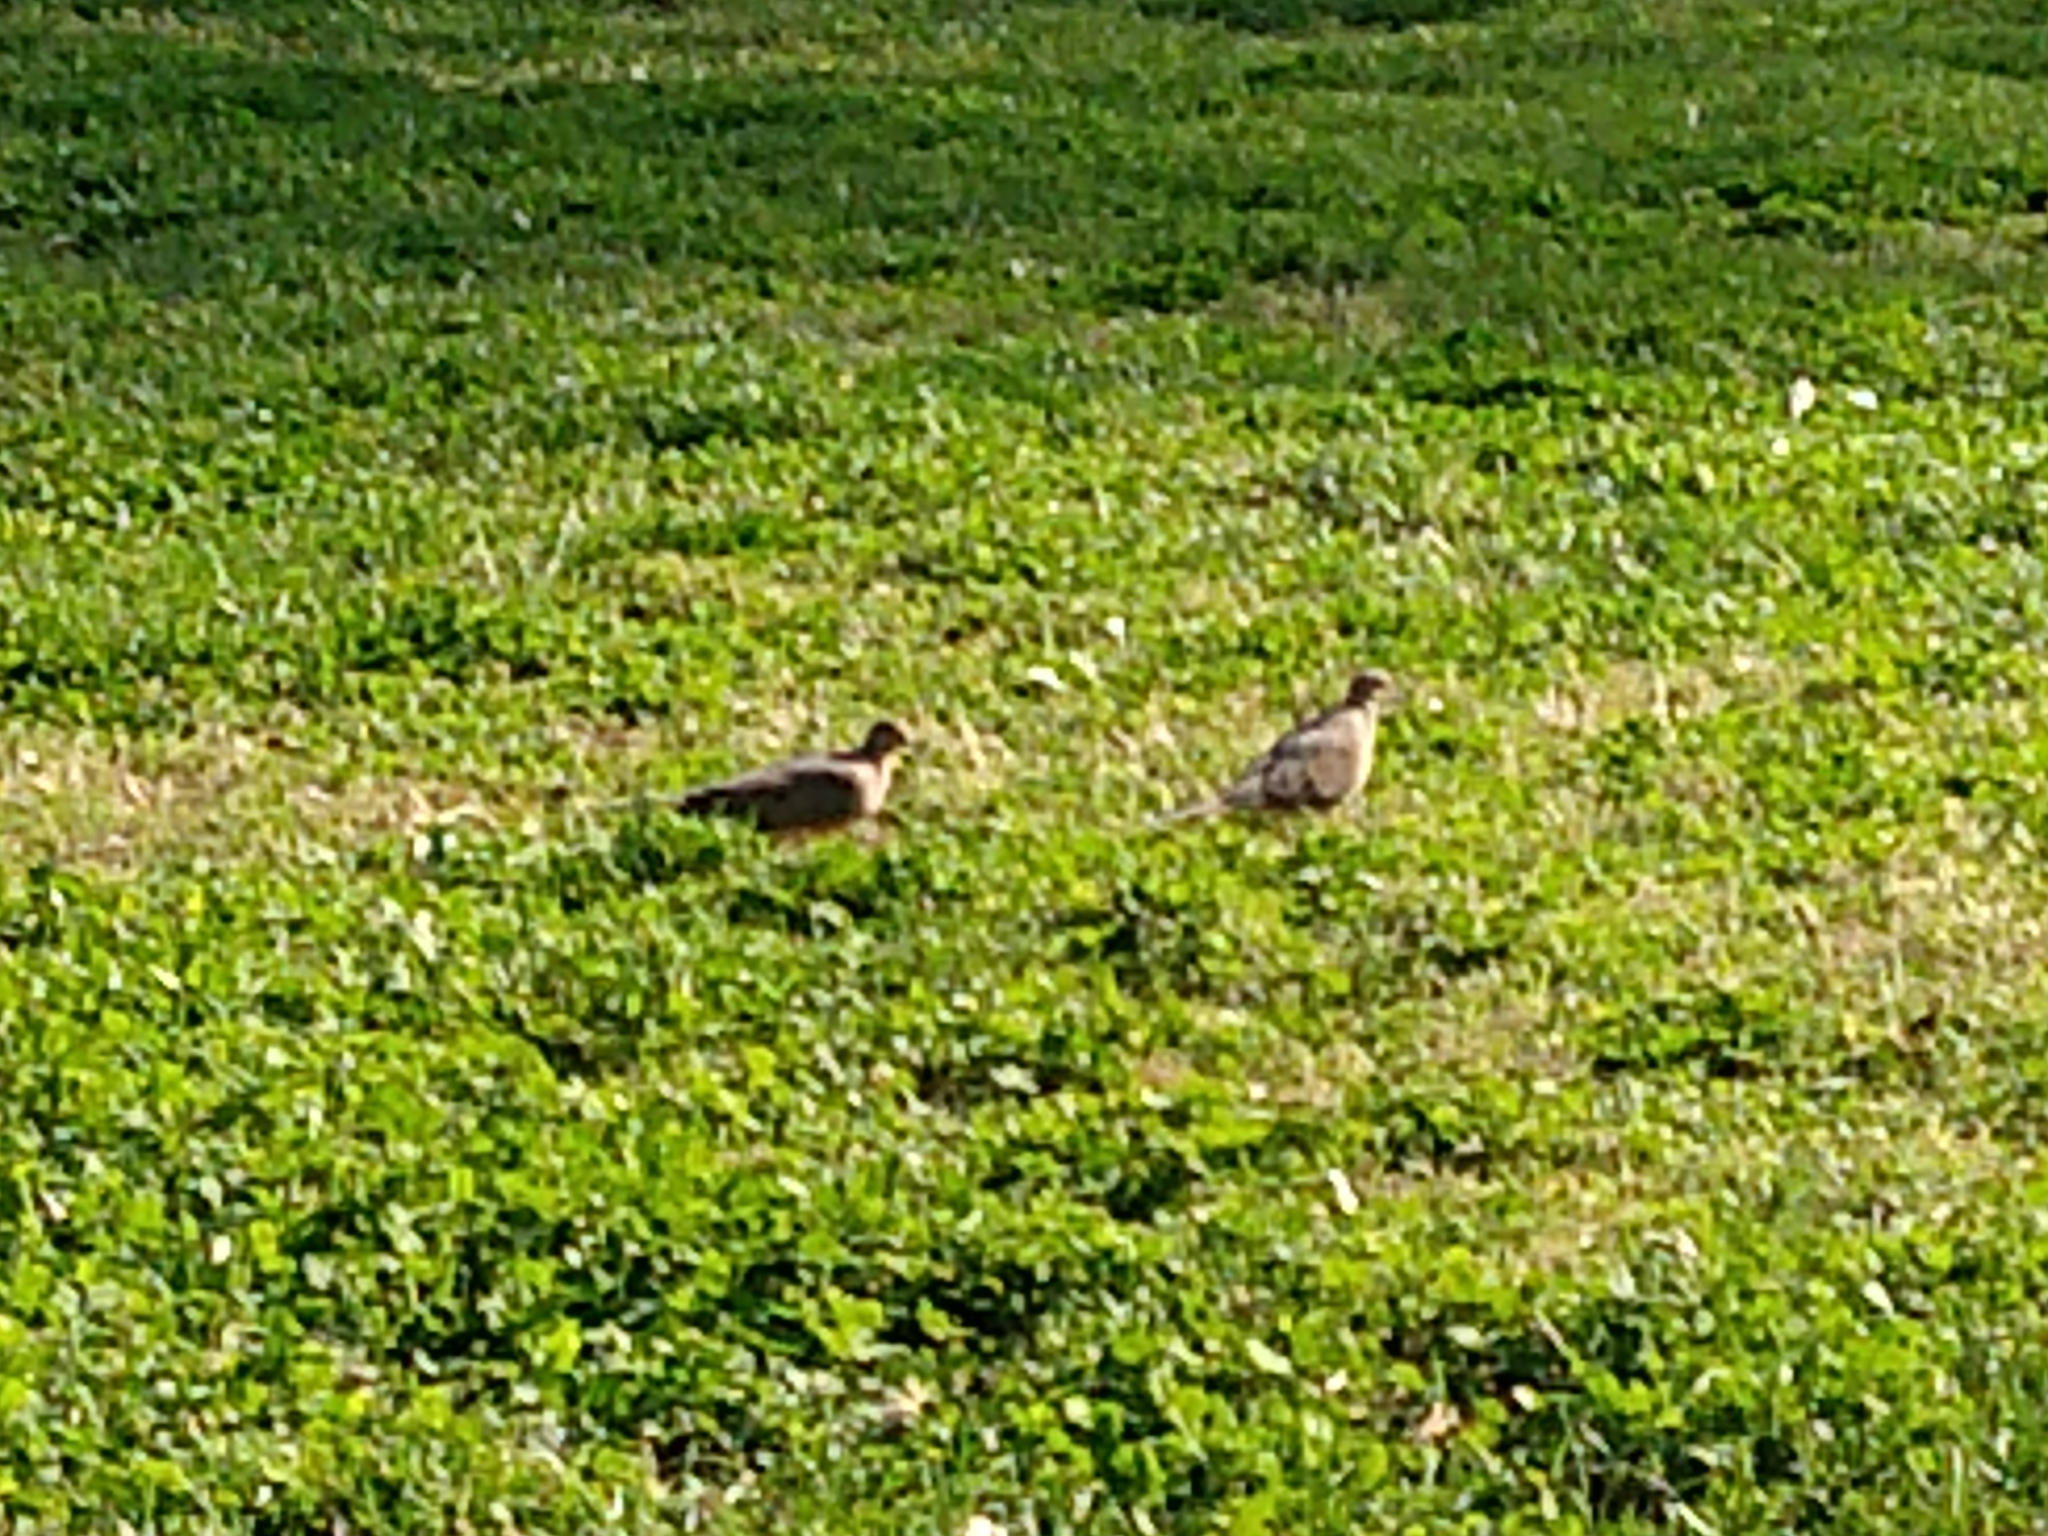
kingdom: Animalia
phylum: Chordata
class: Aves
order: Columbiformes
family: Columbidae
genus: Zenaida
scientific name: Zenaida macroura
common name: Mourning dove
